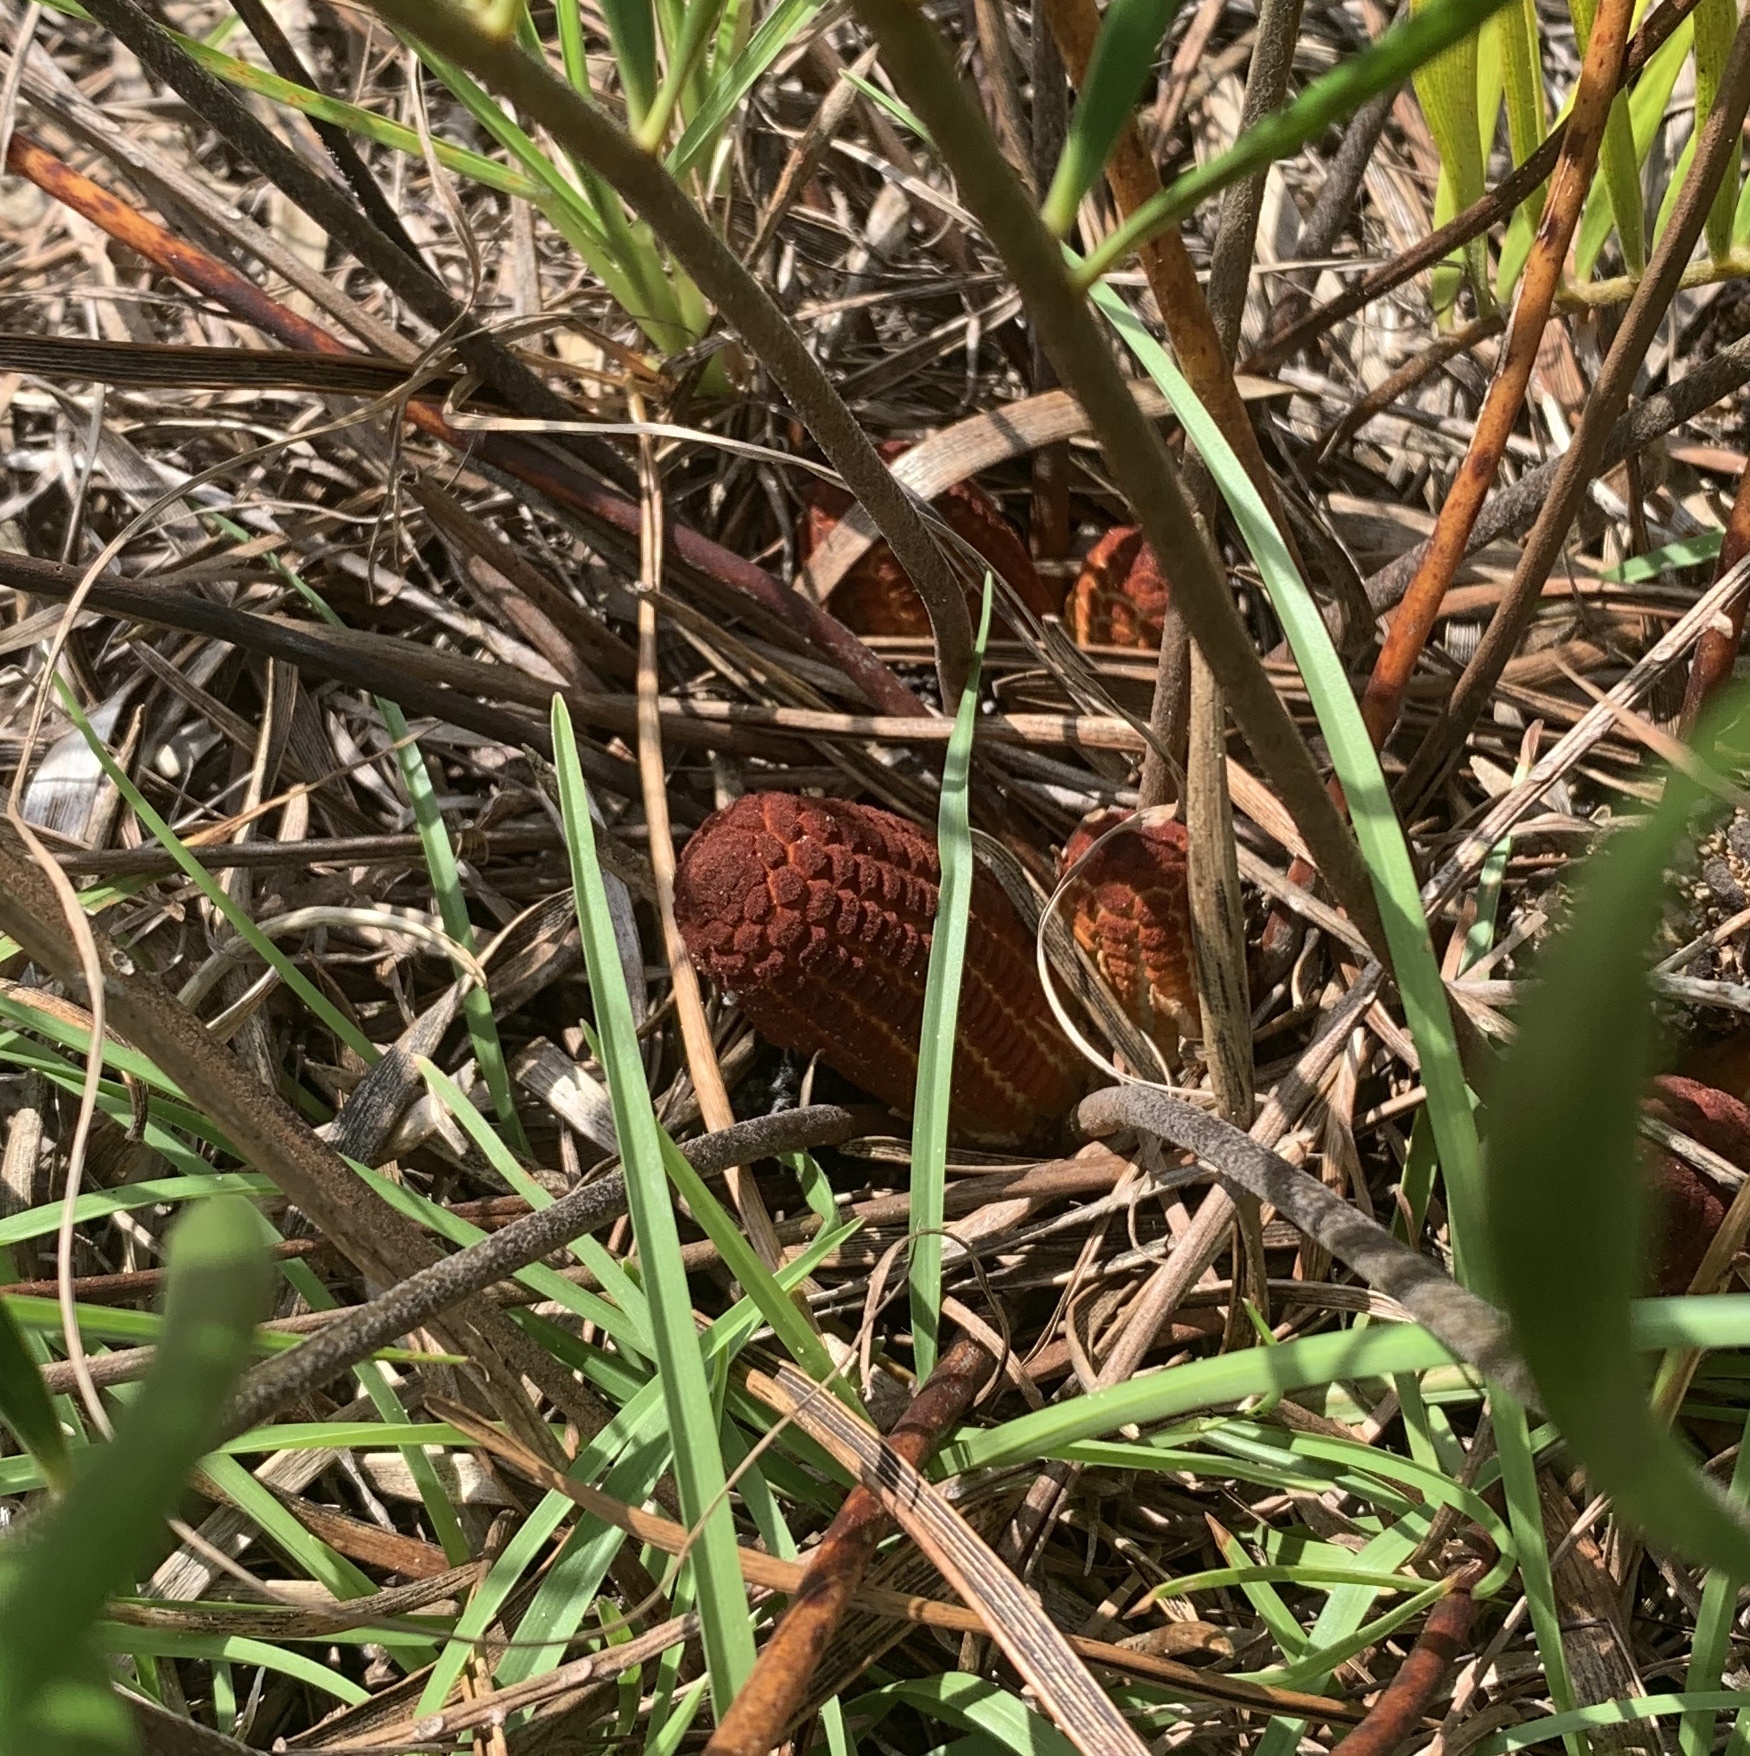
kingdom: Plantae
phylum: Tracheophyta
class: Cycadopsida
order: Cycadales
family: Zamiaceae
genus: Zamia
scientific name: Zamia integrifolia
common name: Florida arrowroot
